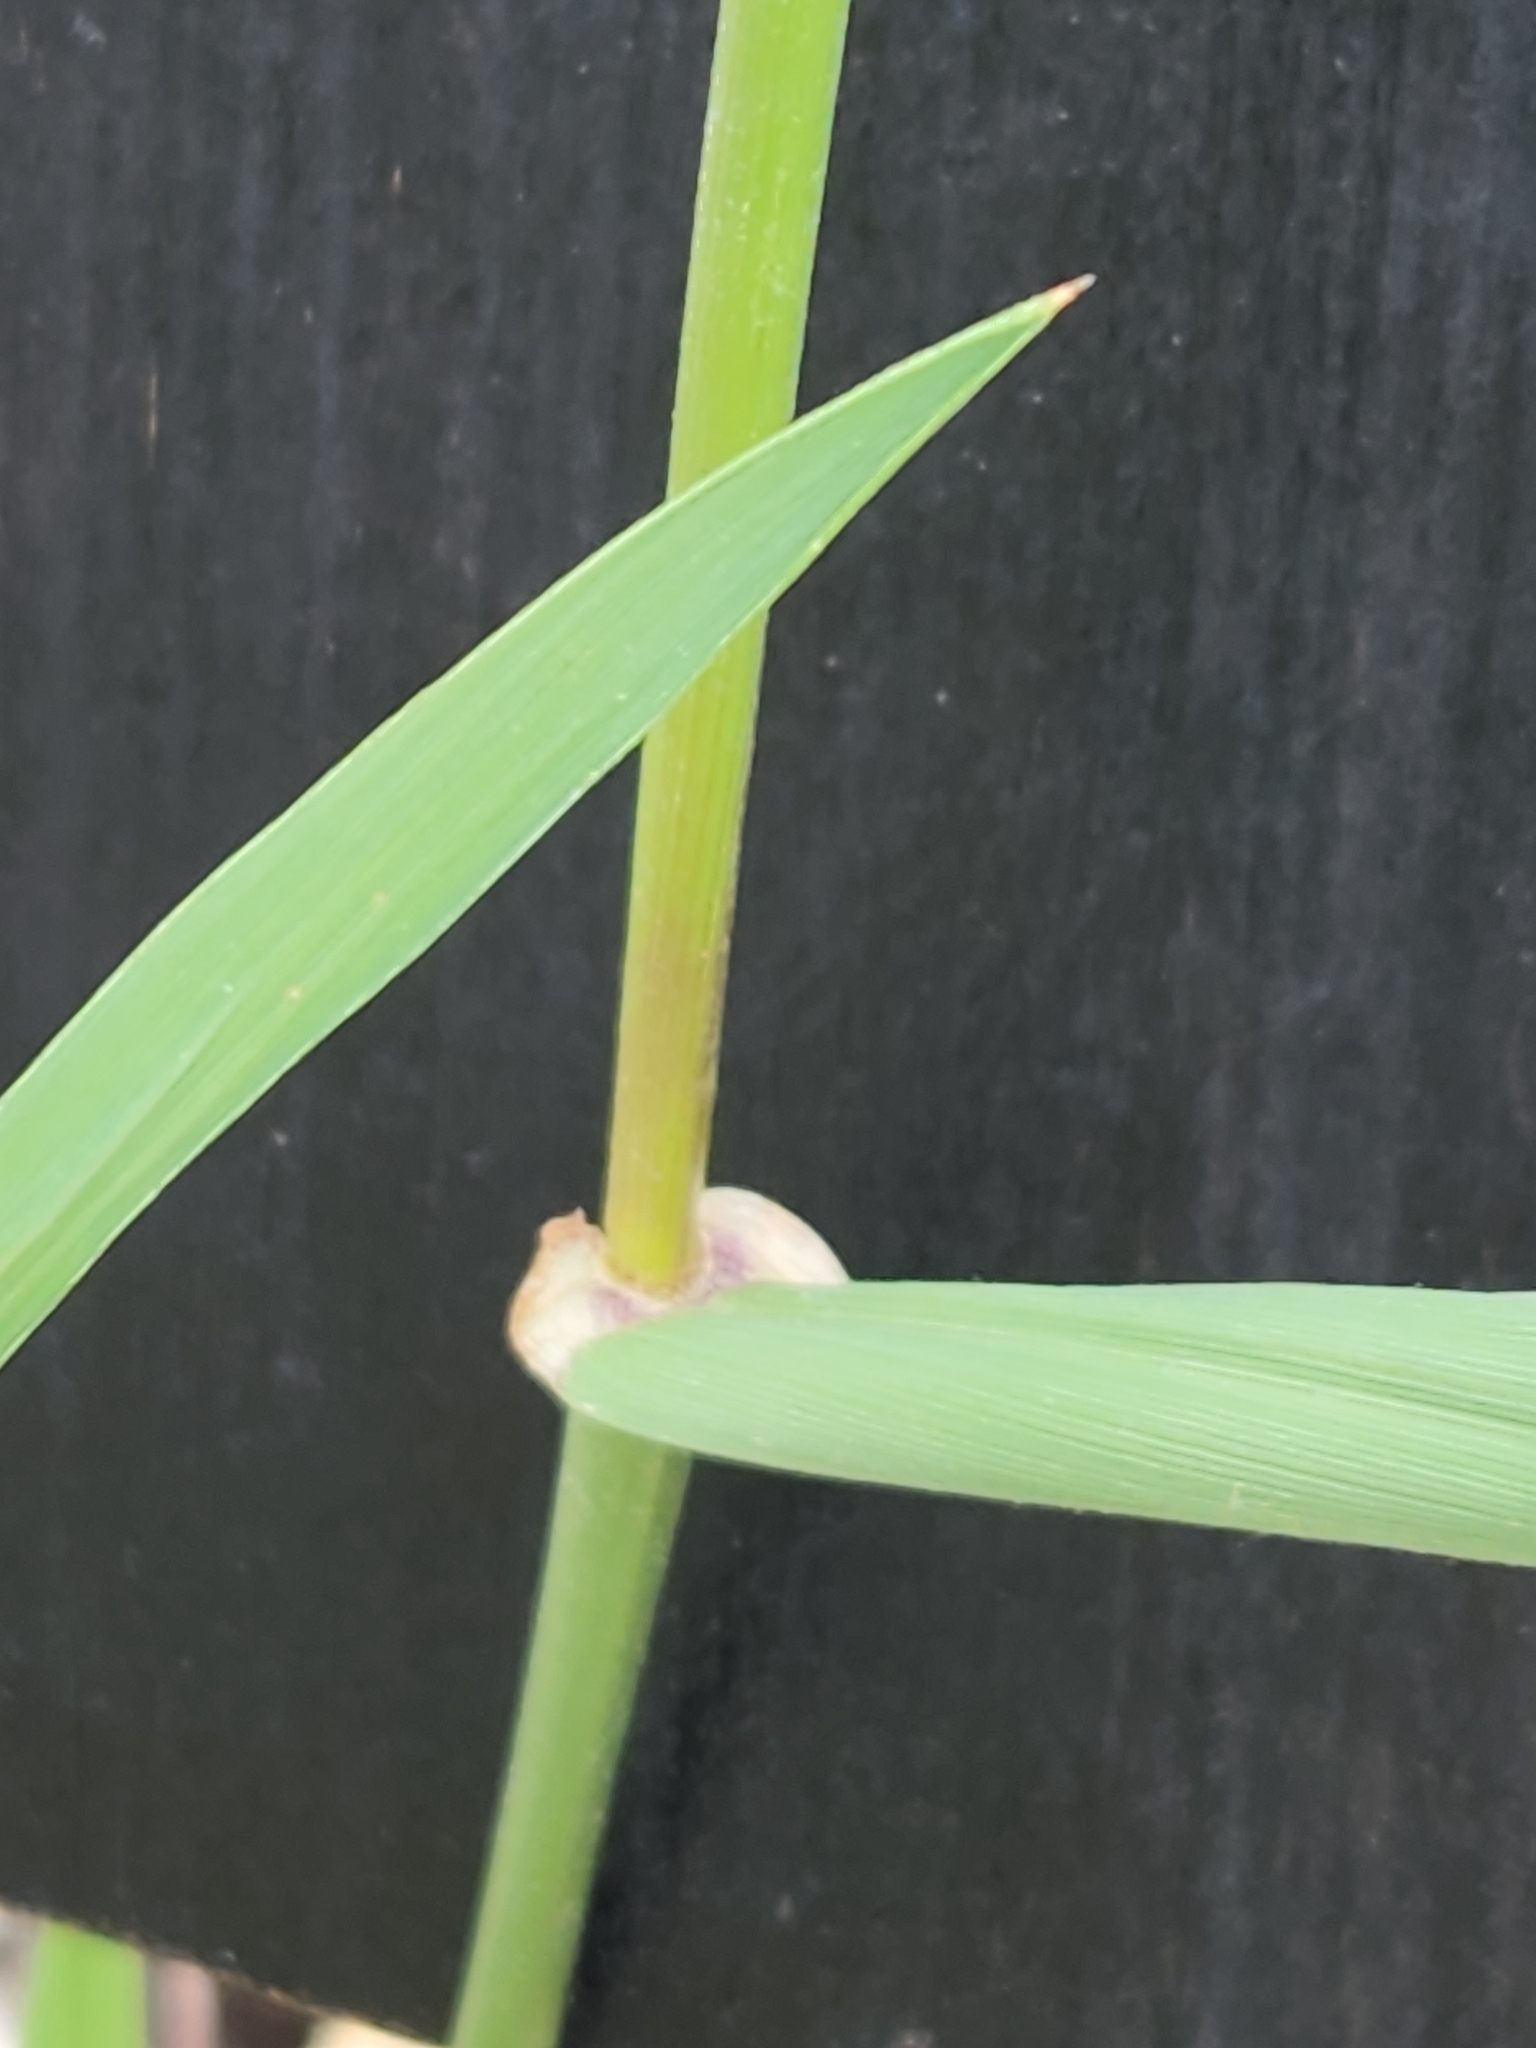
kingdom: Plantae
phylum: Tracheophyta
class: Liliopsida
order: Poales
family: Poaceae
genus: Lolium
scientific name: Lolium perenne
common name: Perennial ryegrass
